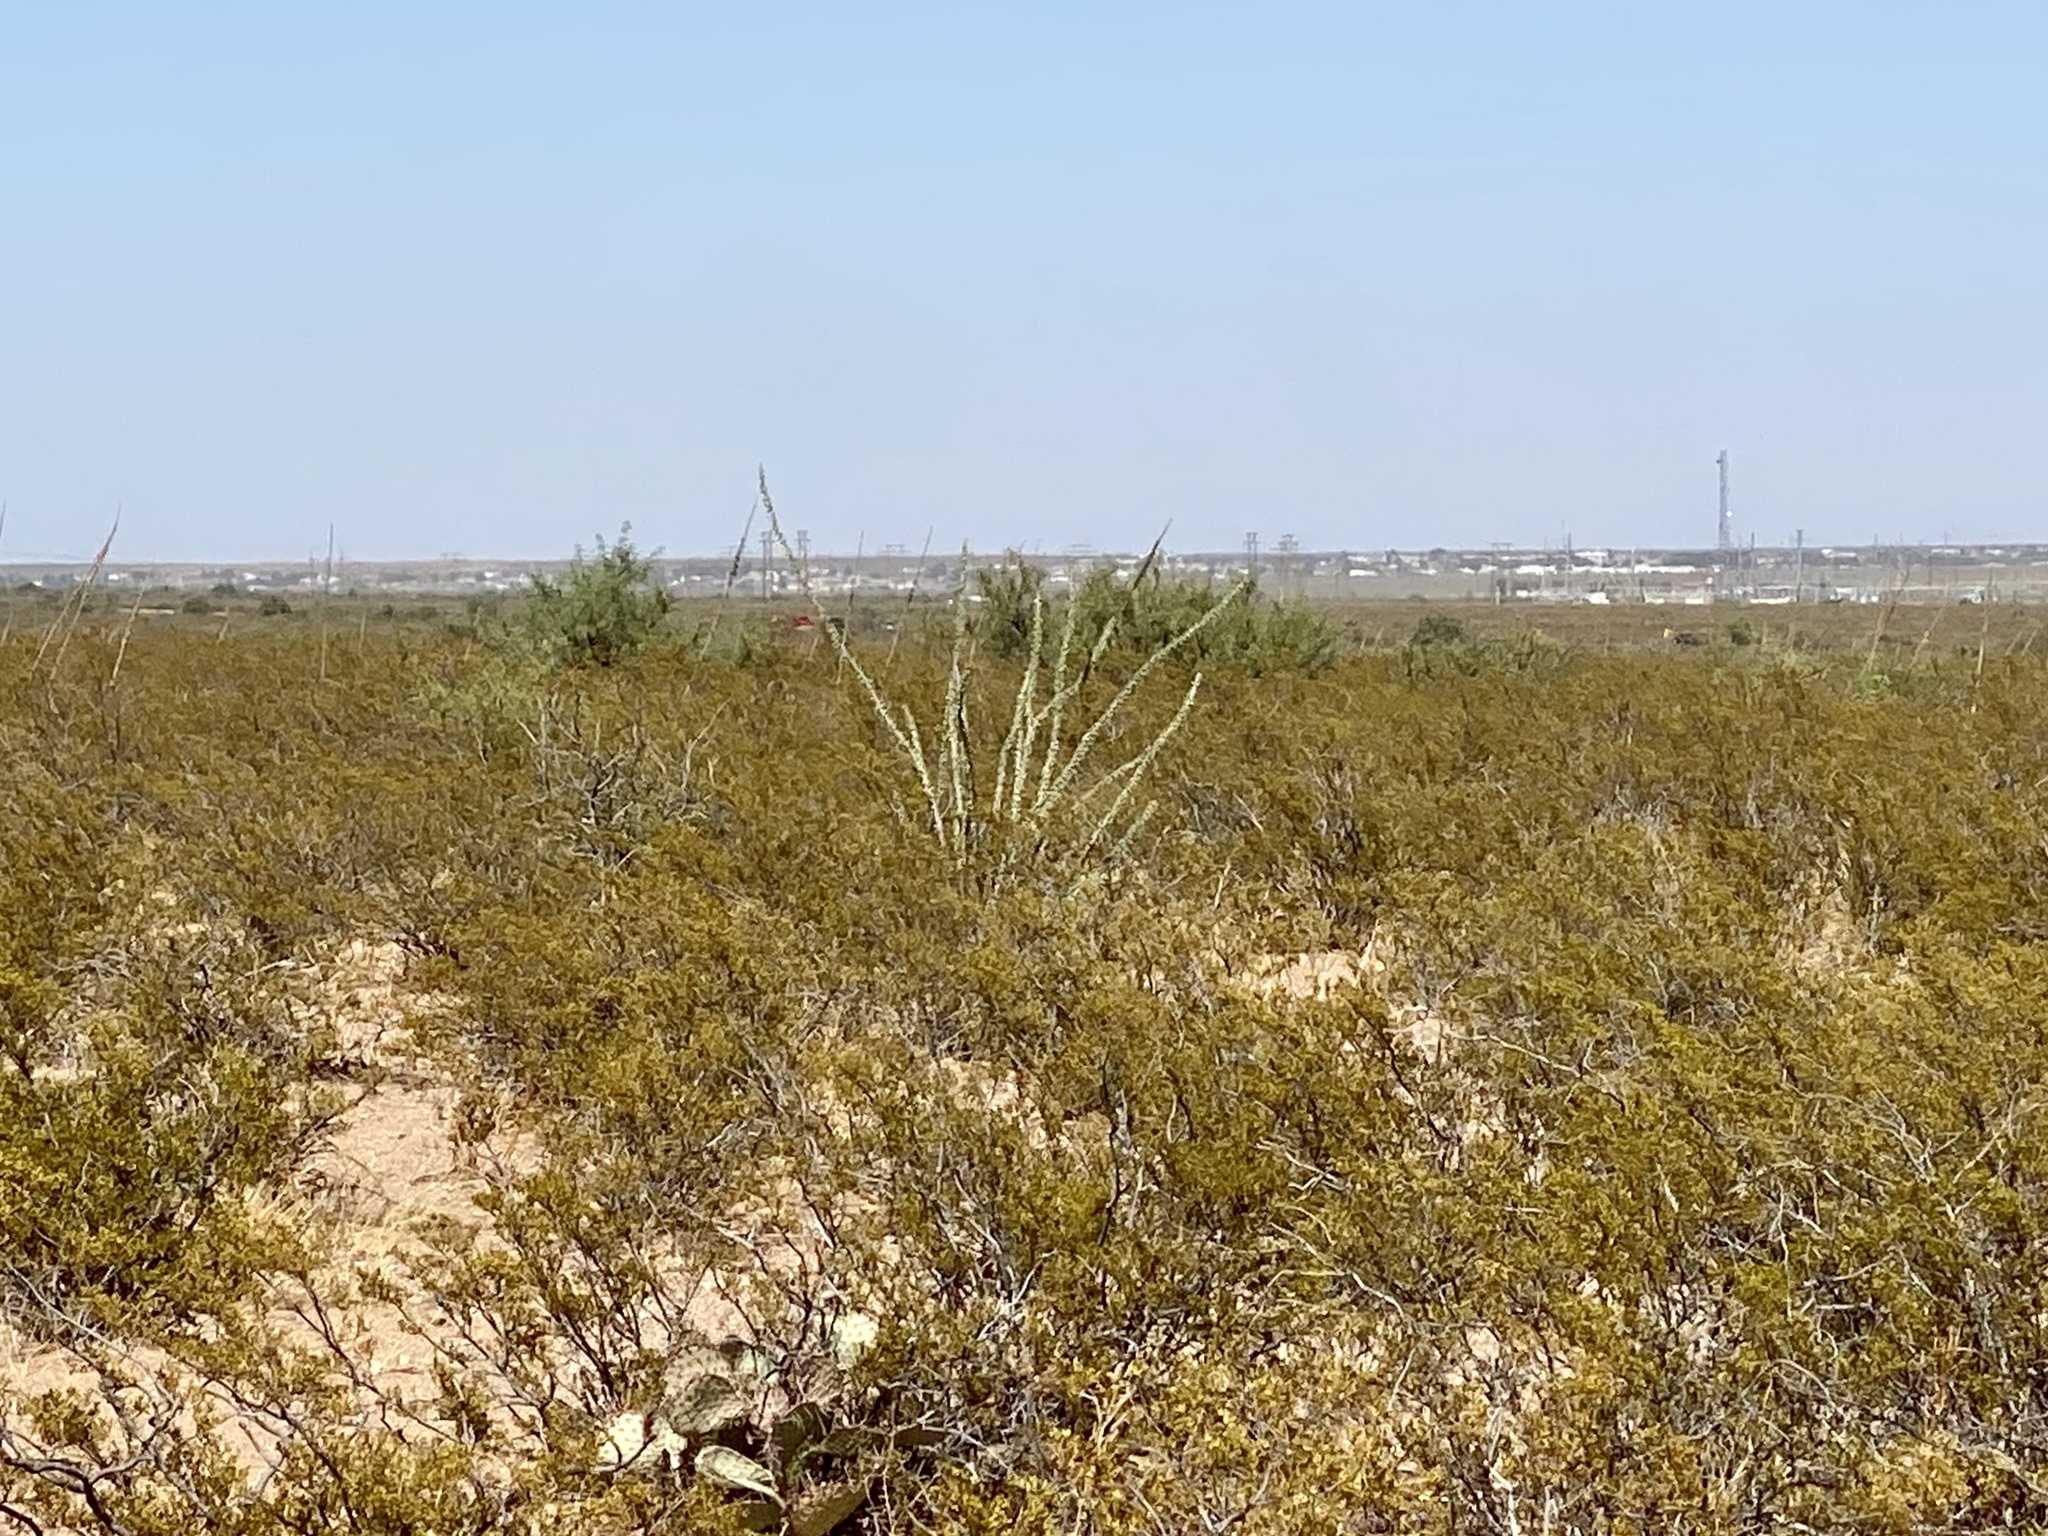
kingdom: Plantae
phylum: Tracheophyta
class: Magnoliopsida
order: Ericales
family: Fouquieriaceae
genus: Fouquieria
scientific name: Fouquieria splendens
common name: Vine-cactus
